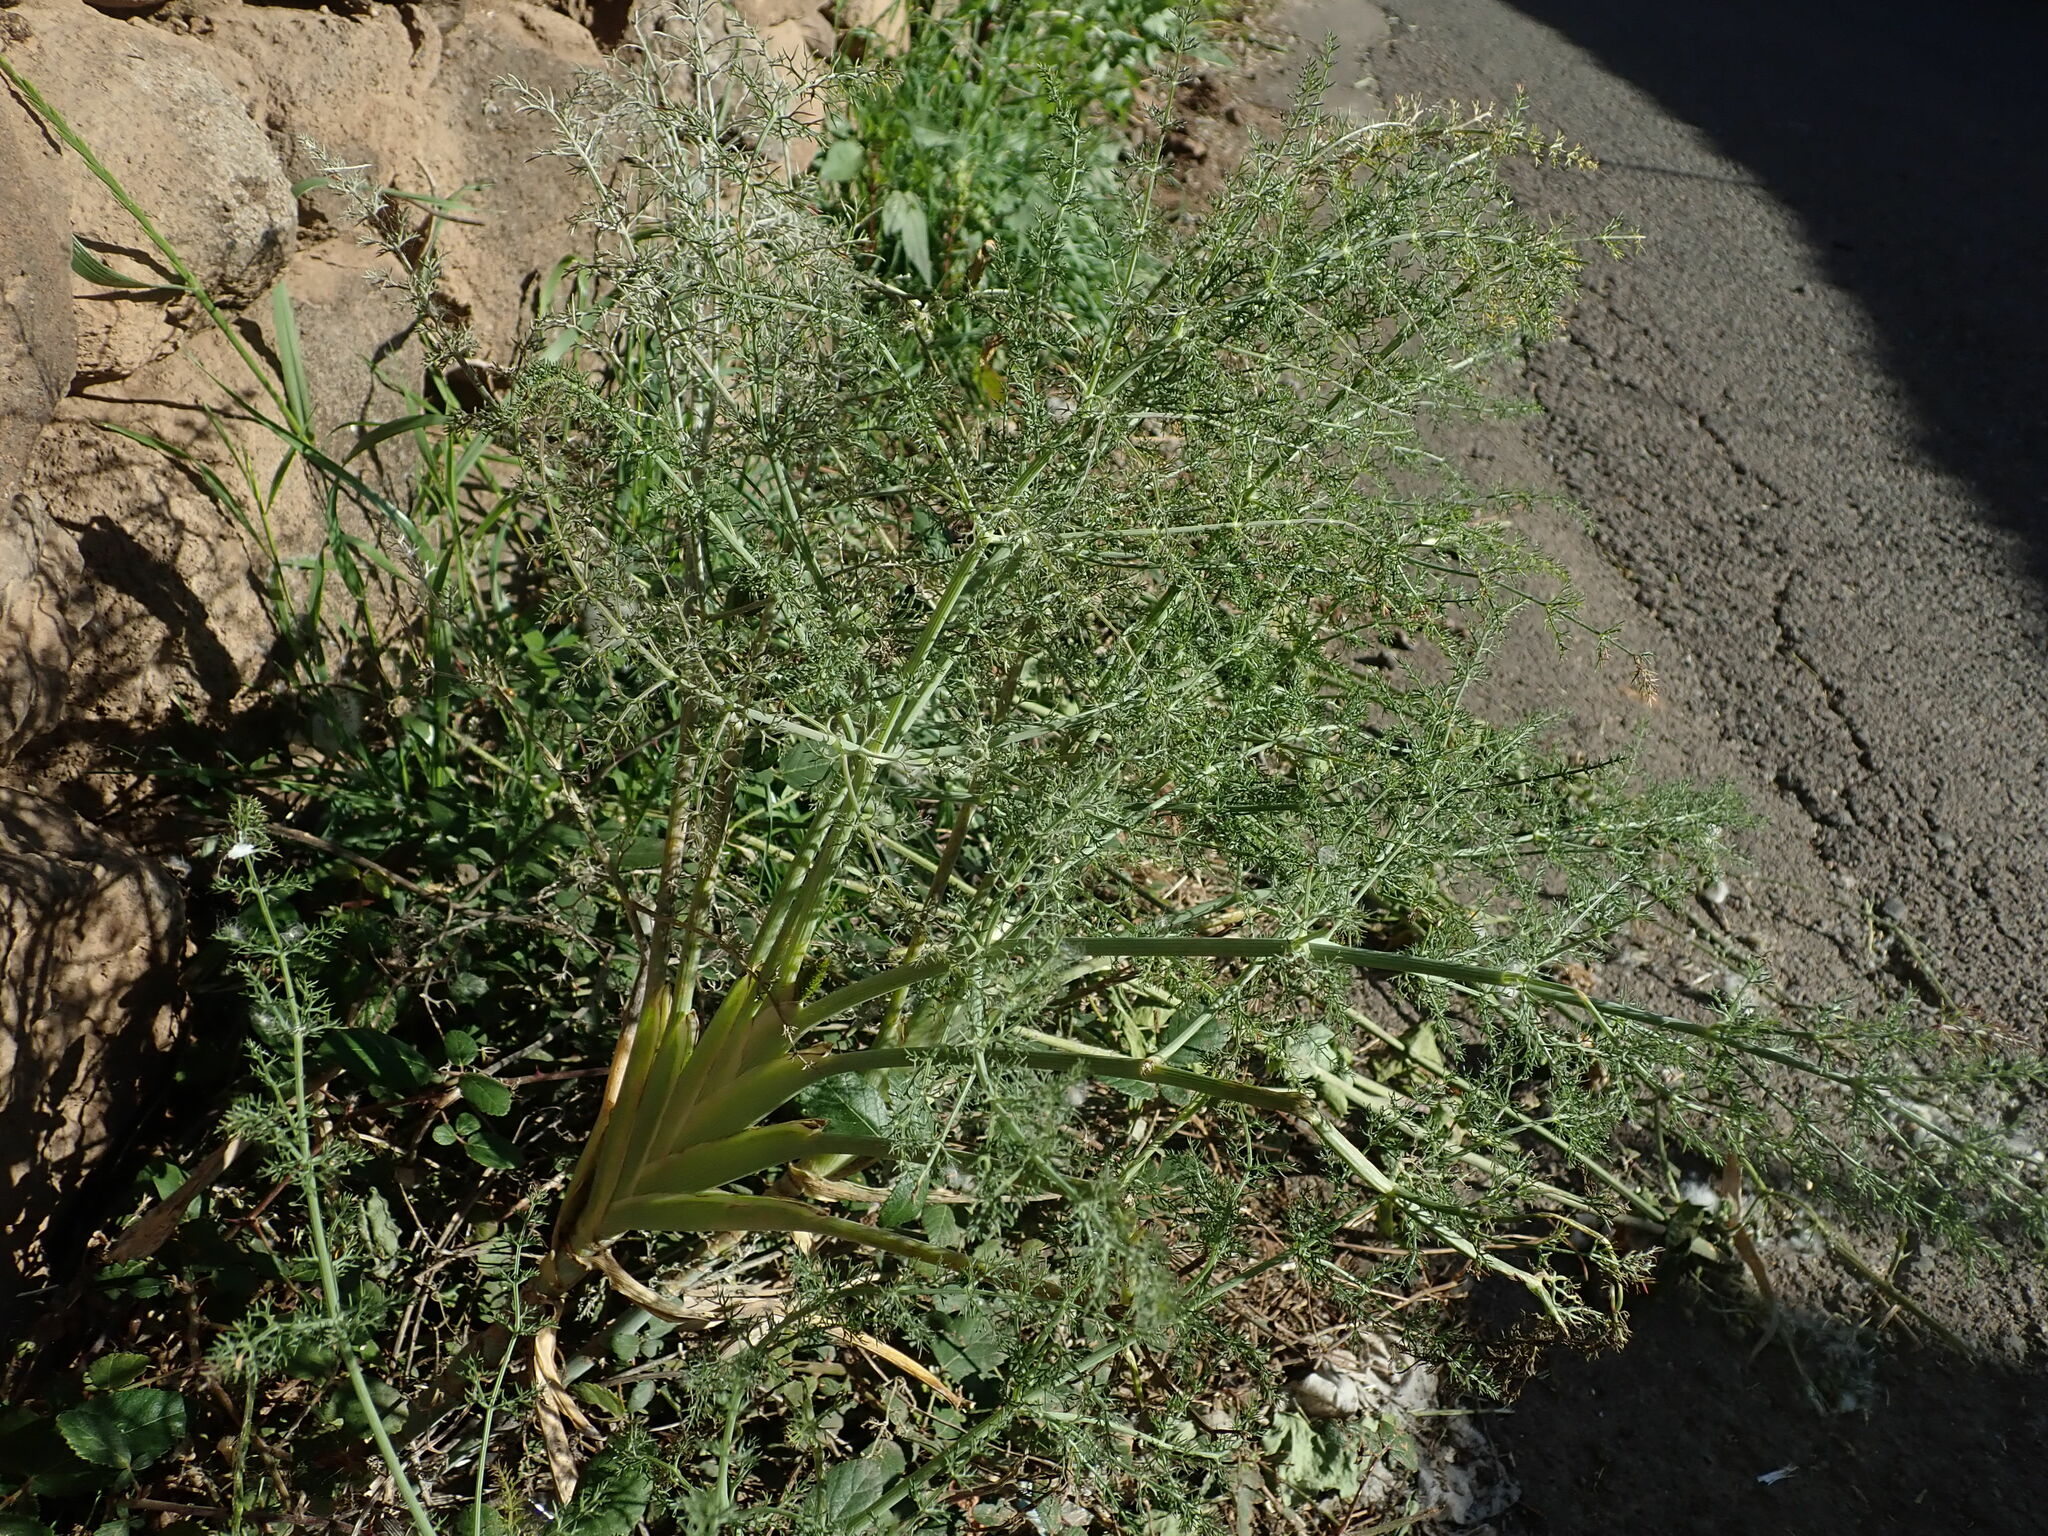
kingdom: Plantae
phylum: Tracheophyta
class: Magnoliopsida
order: Apiales
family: Apiaceae
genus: Foeniculum
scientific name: Foeniculum vulgare
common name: Fennel
